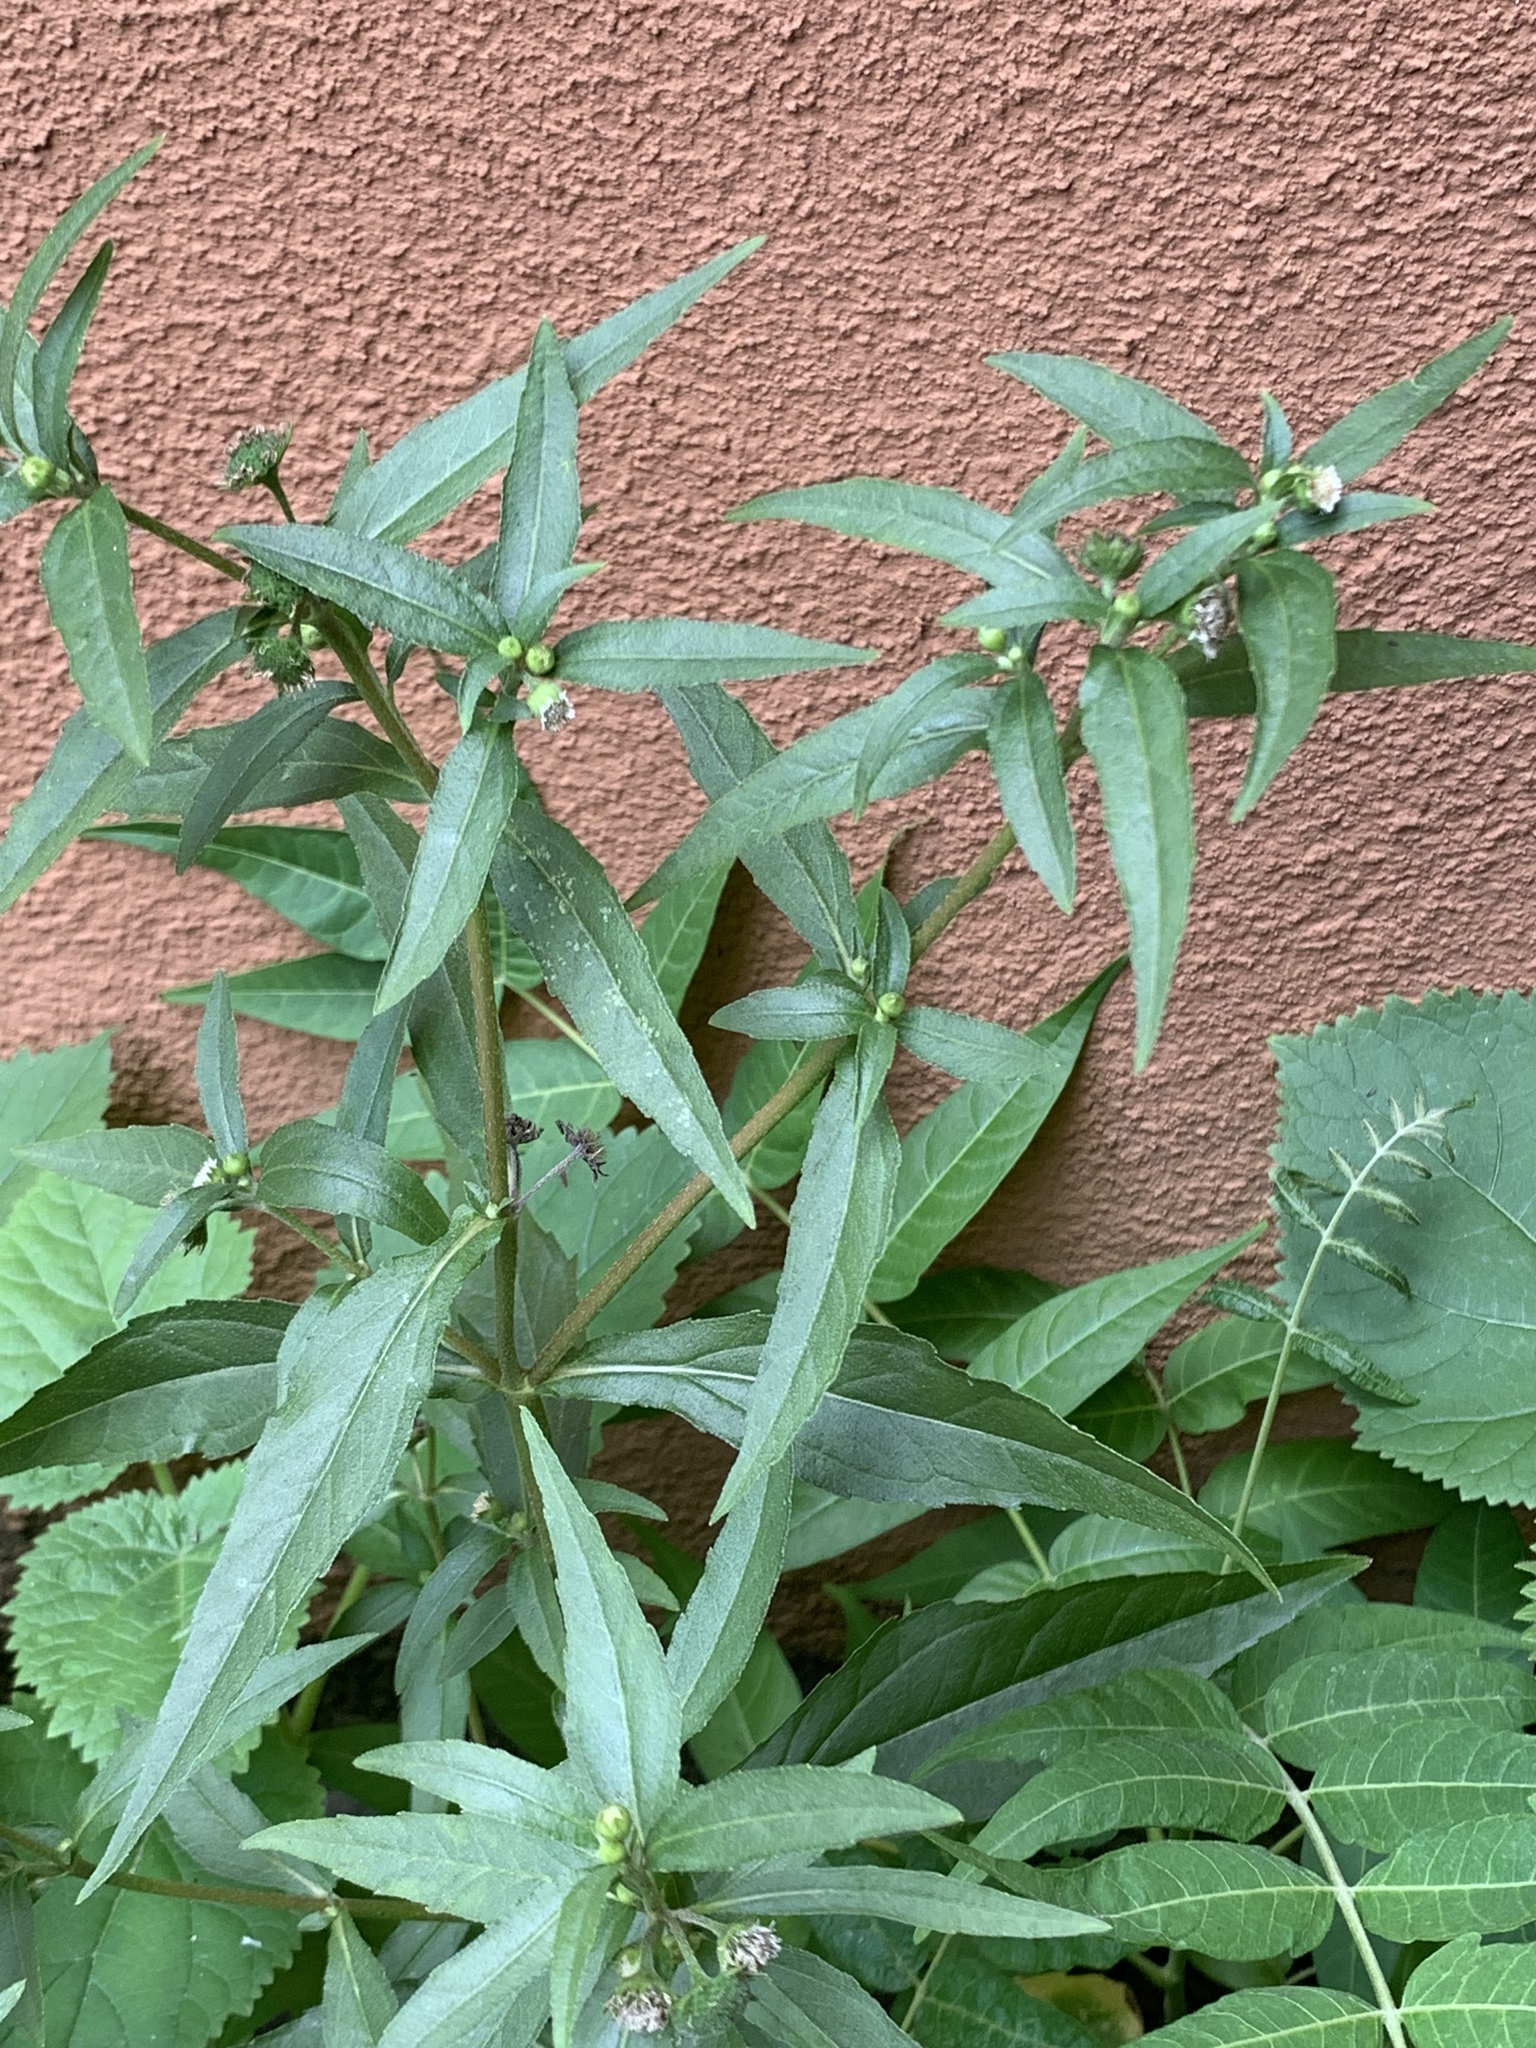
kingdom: Plantae
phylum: Tracheophyta
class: Magnoliopsida
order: Asterales
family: Asteraceae
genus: Eclipta
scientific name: Eclipta prostrata
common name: False daisy
